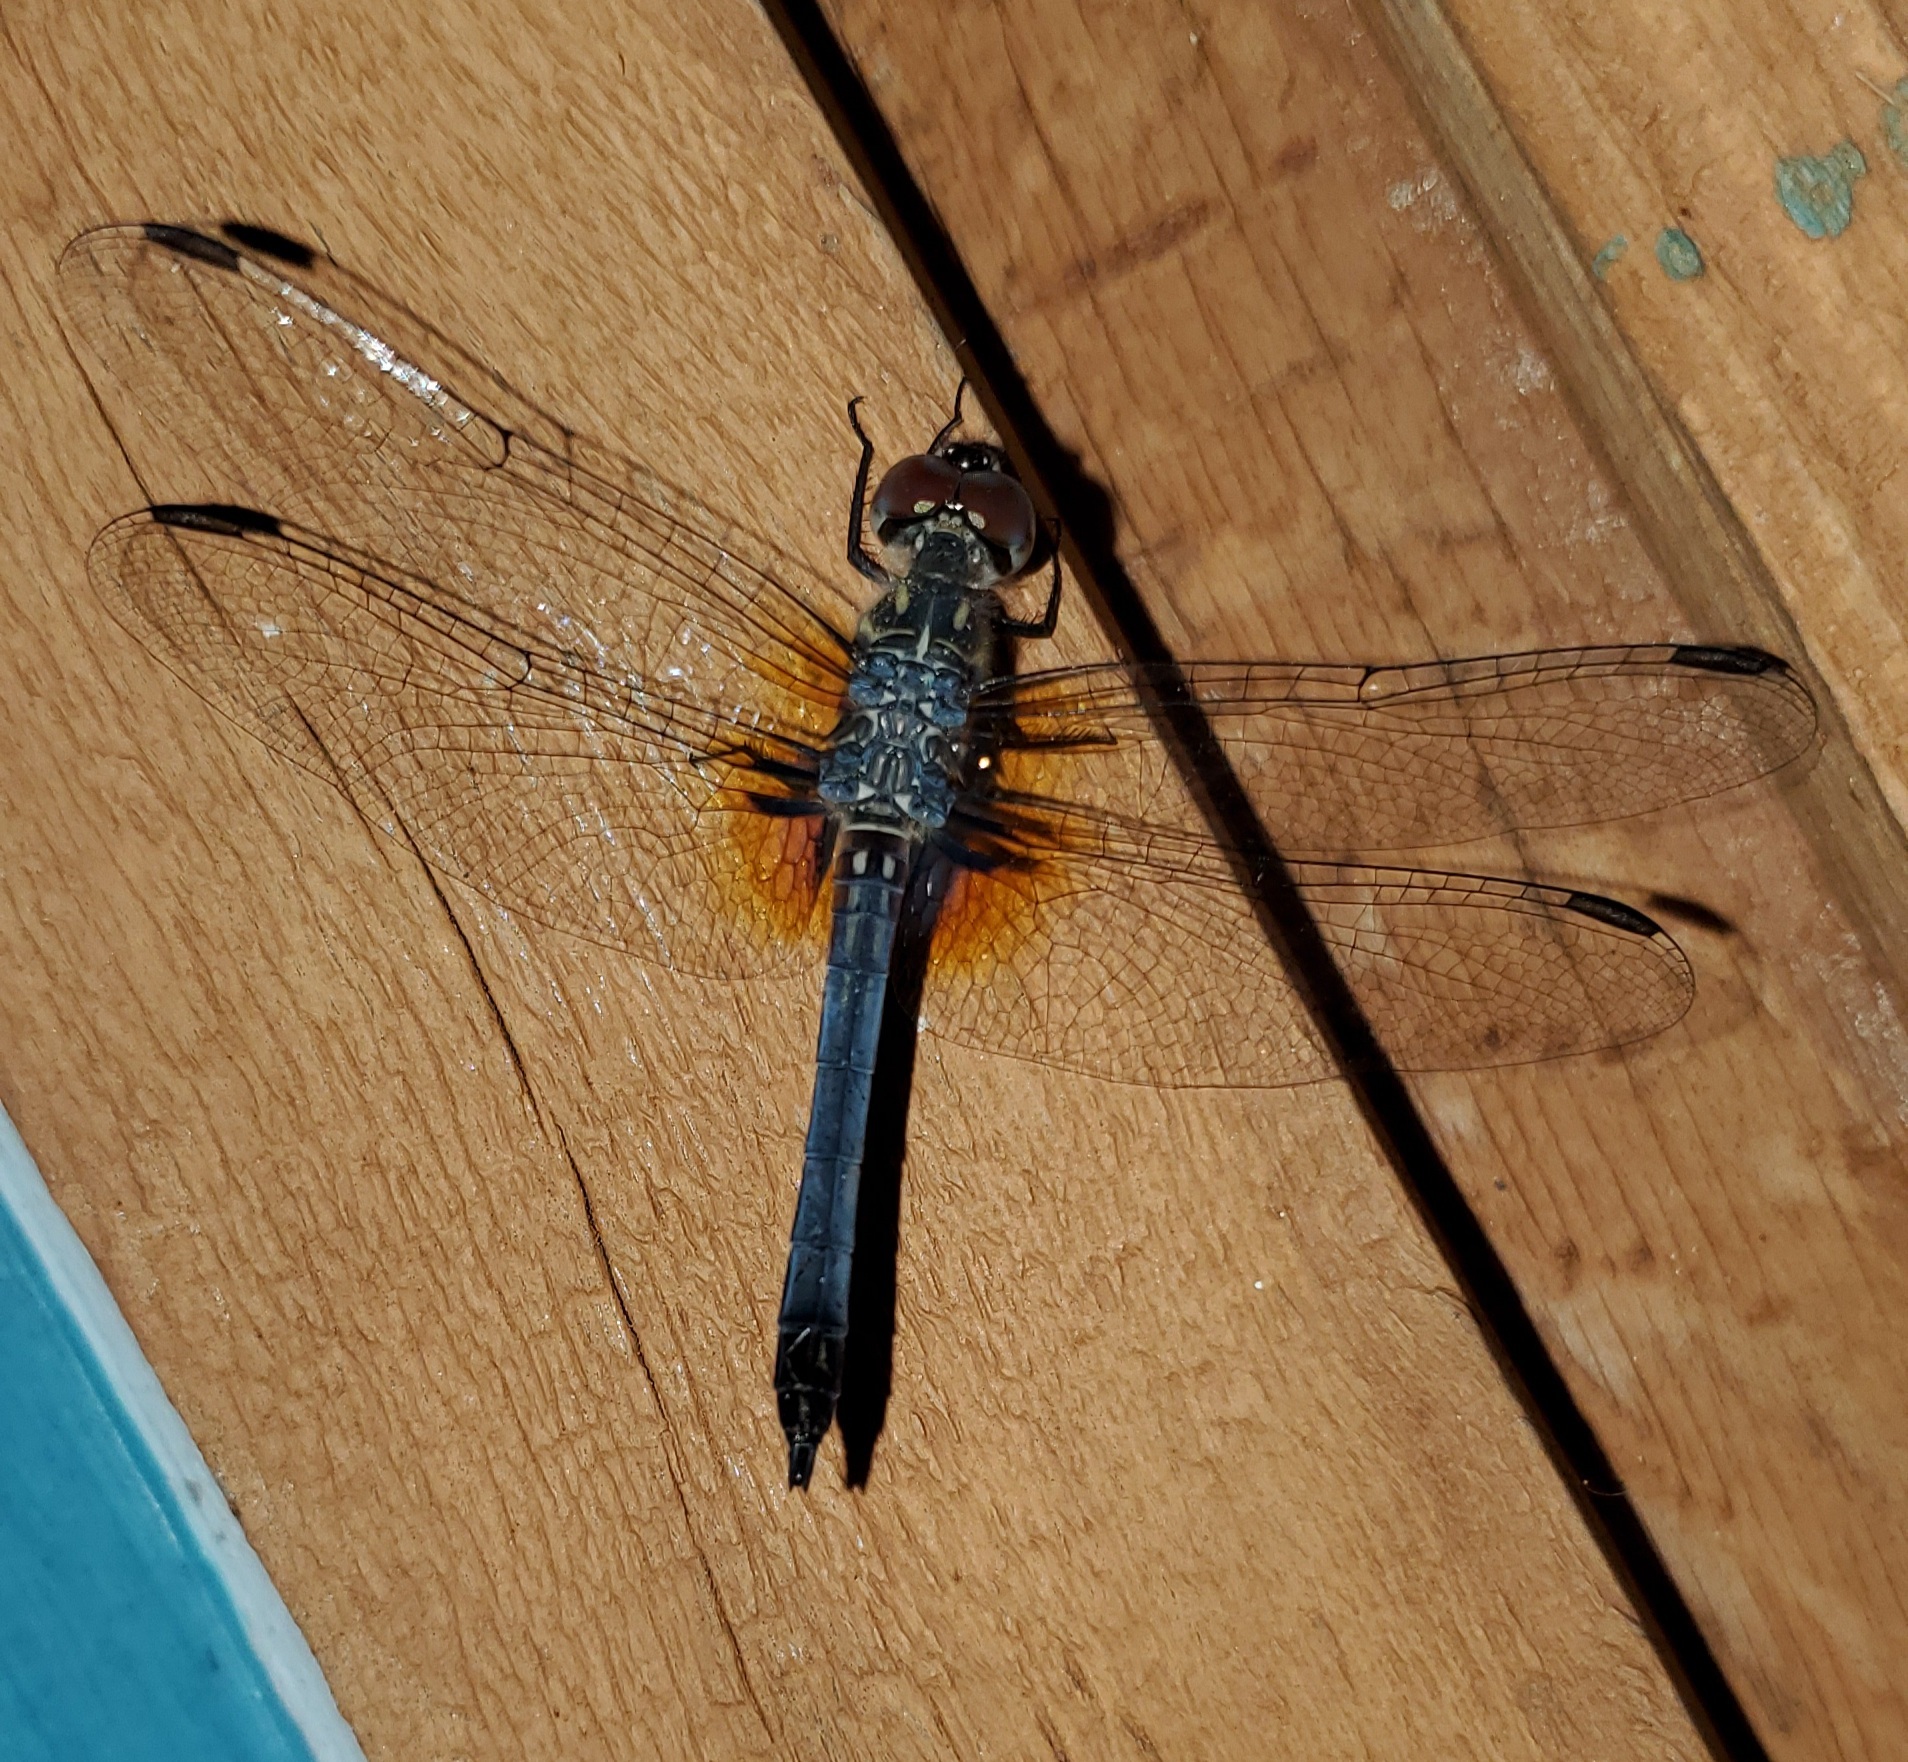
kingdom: Animalia
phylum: Arthropoda
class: Insecta
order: Odonata
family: Libellulidae
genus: Pachydiplax
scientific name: Pachydiplax longipennis
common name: Blue dasher
